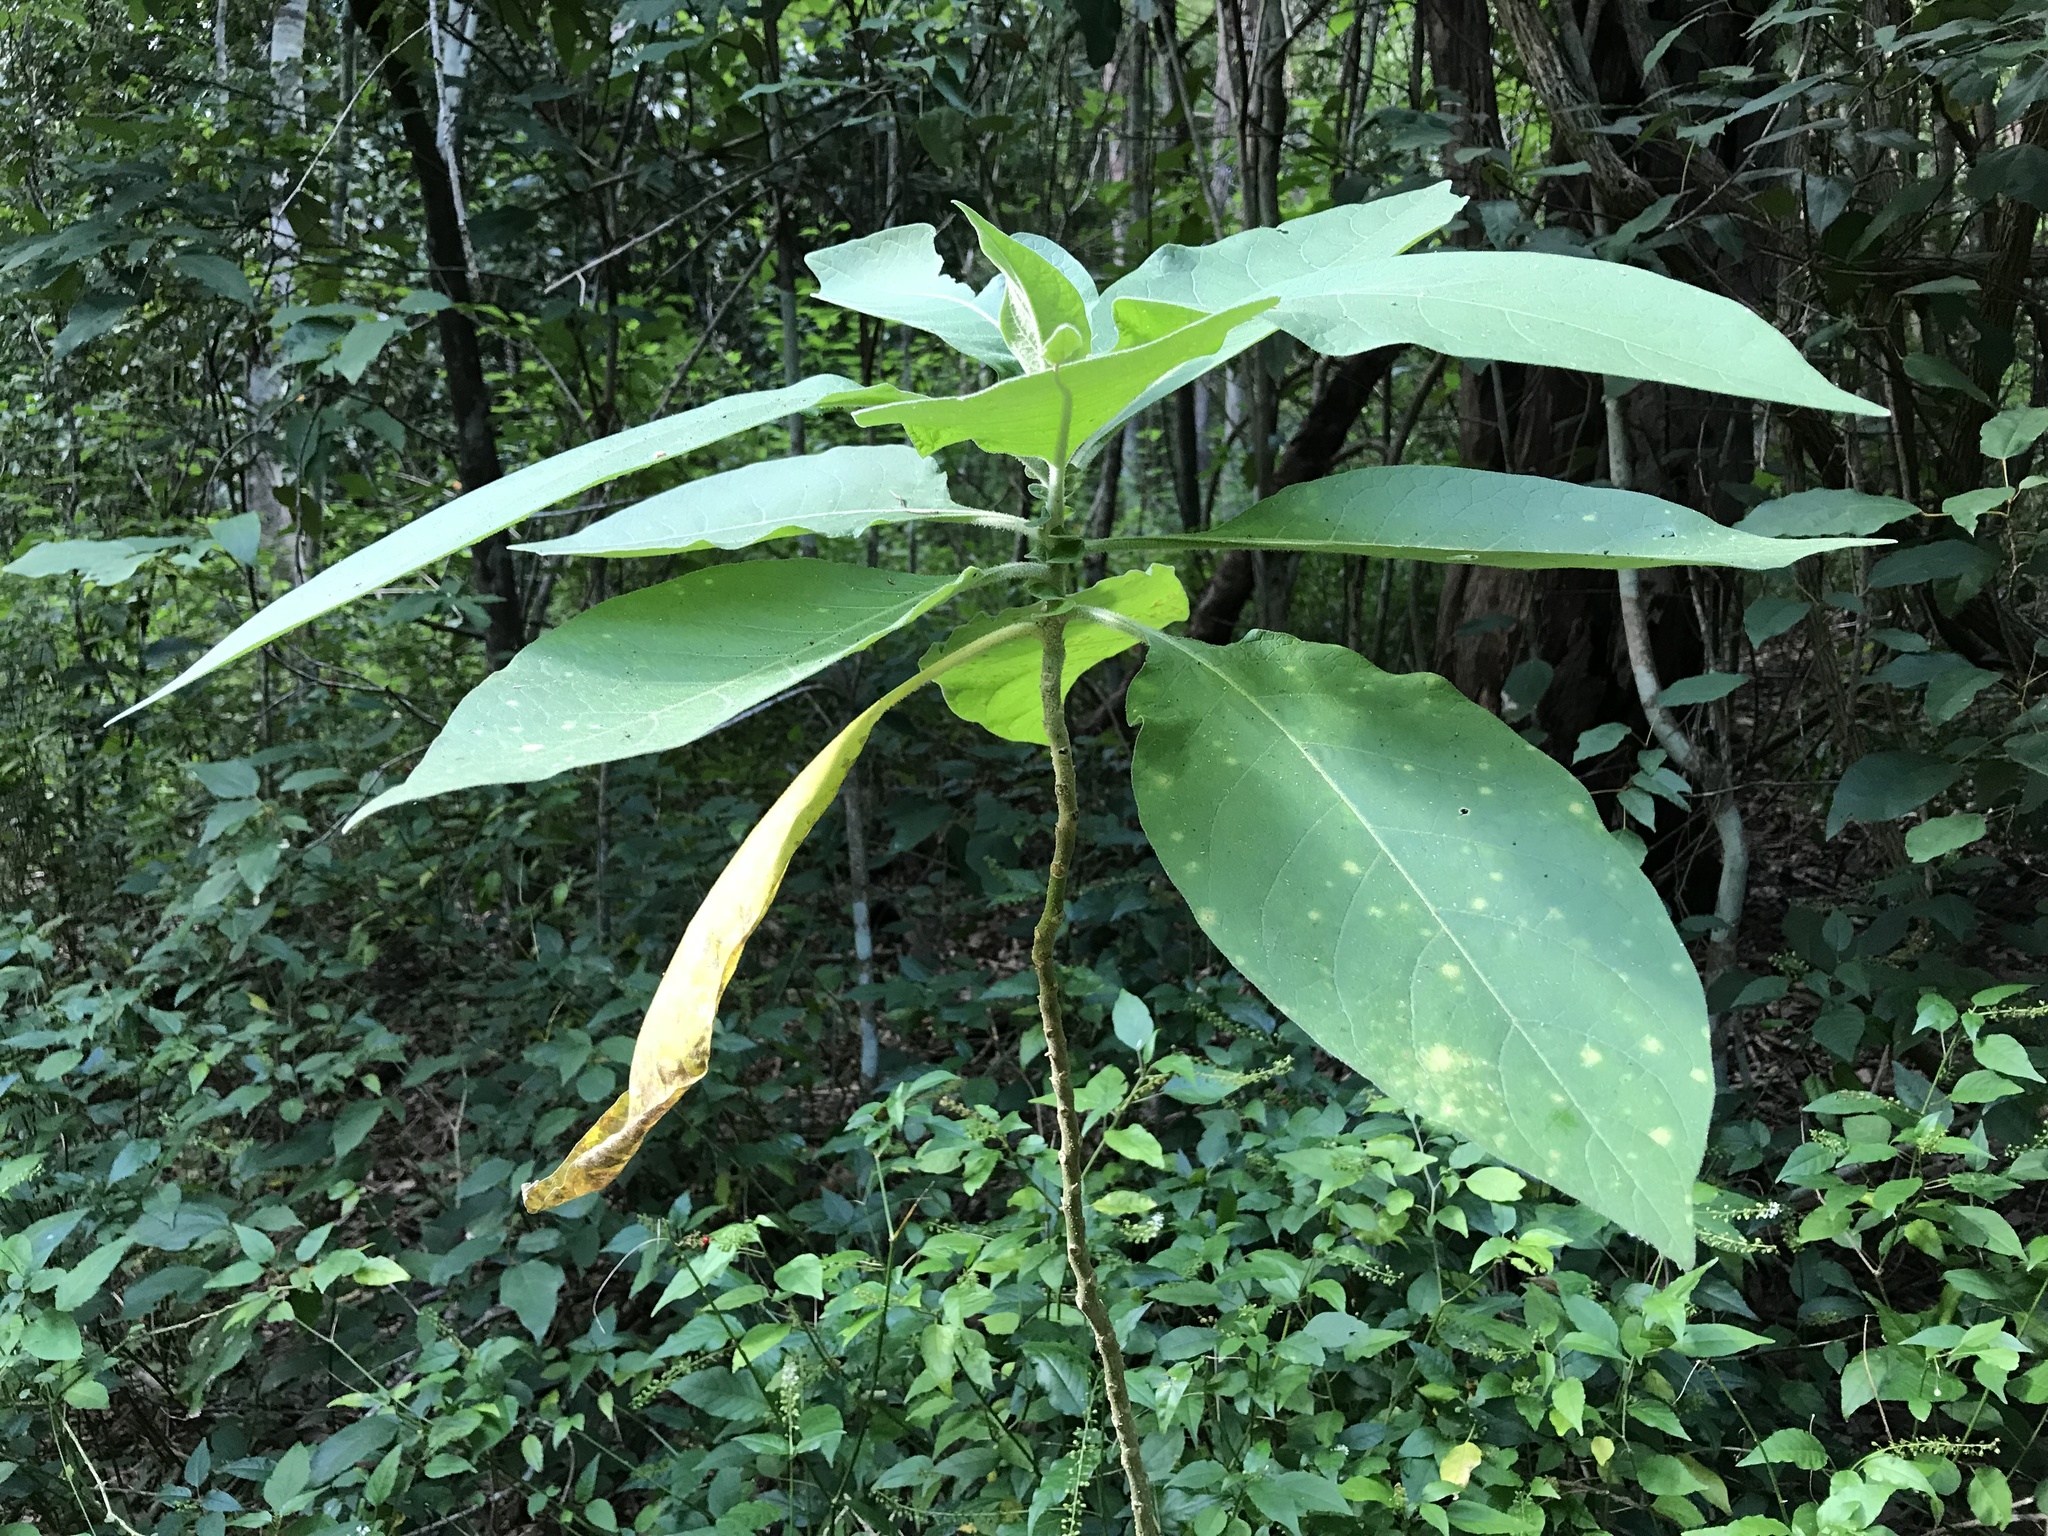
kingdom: Plantae
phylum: Tracheophyta
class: Magnoliopsida
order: Solanales
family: Solanaceae
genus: Solanum
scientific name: Solanum mauritianum
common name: Earleaf nightshade
